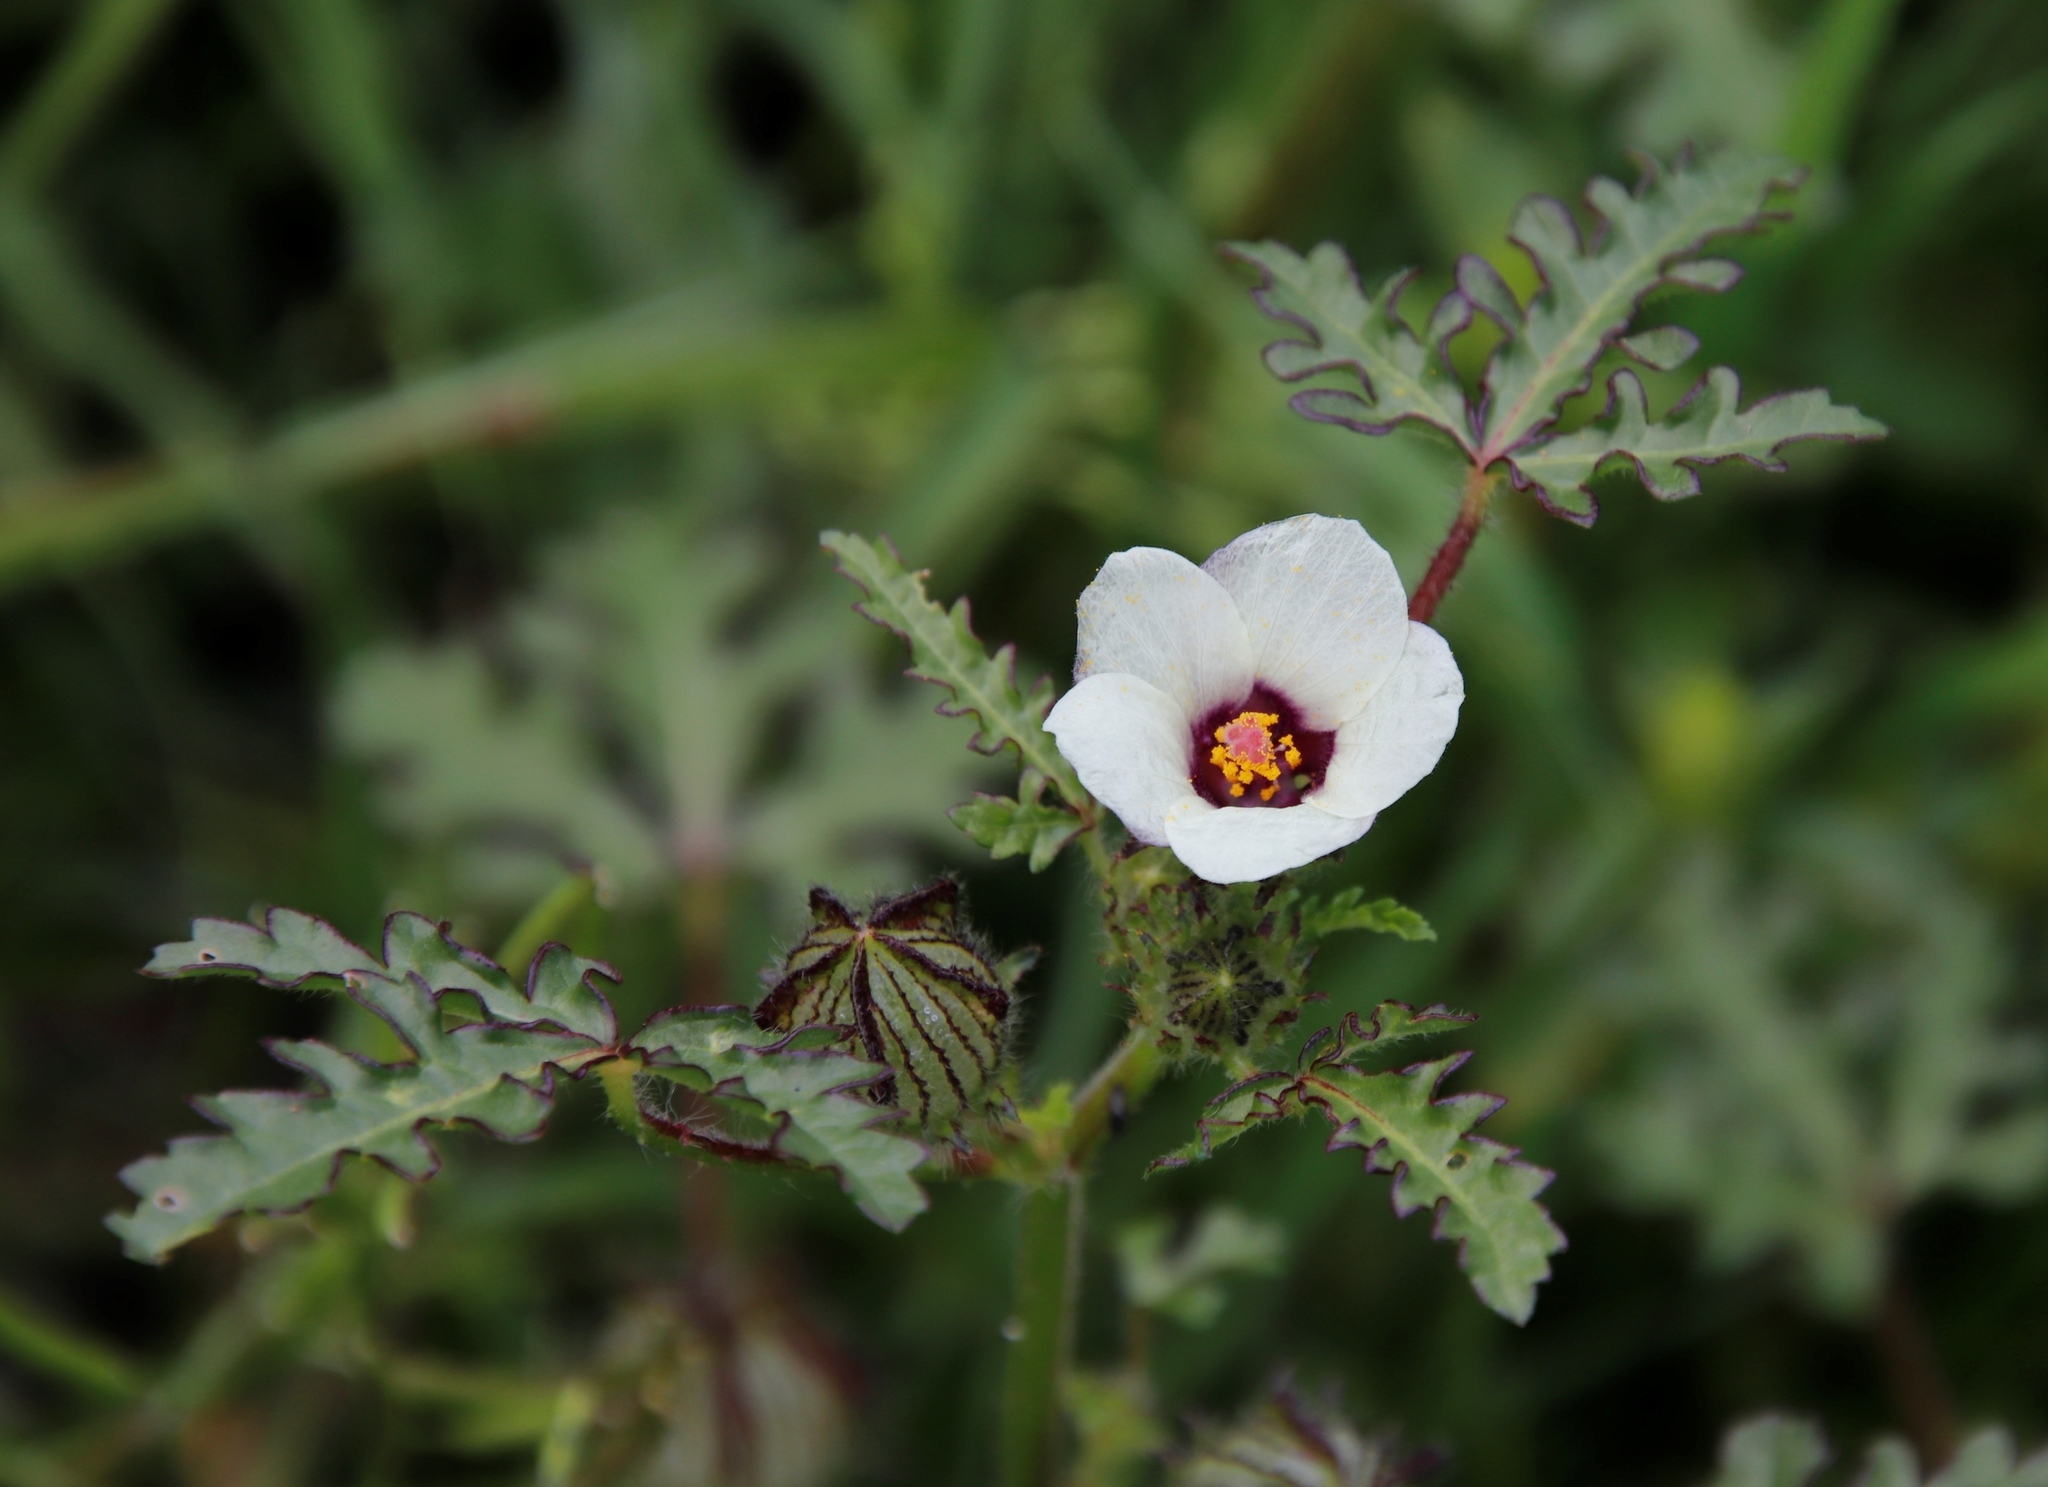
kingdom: Plantae
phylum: Tracheophyta
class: Magnoliopsida
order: Malvales
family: Malvaceae
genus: Hibiscus
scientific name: Hibiscus trionum
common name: Bladder ketmia
